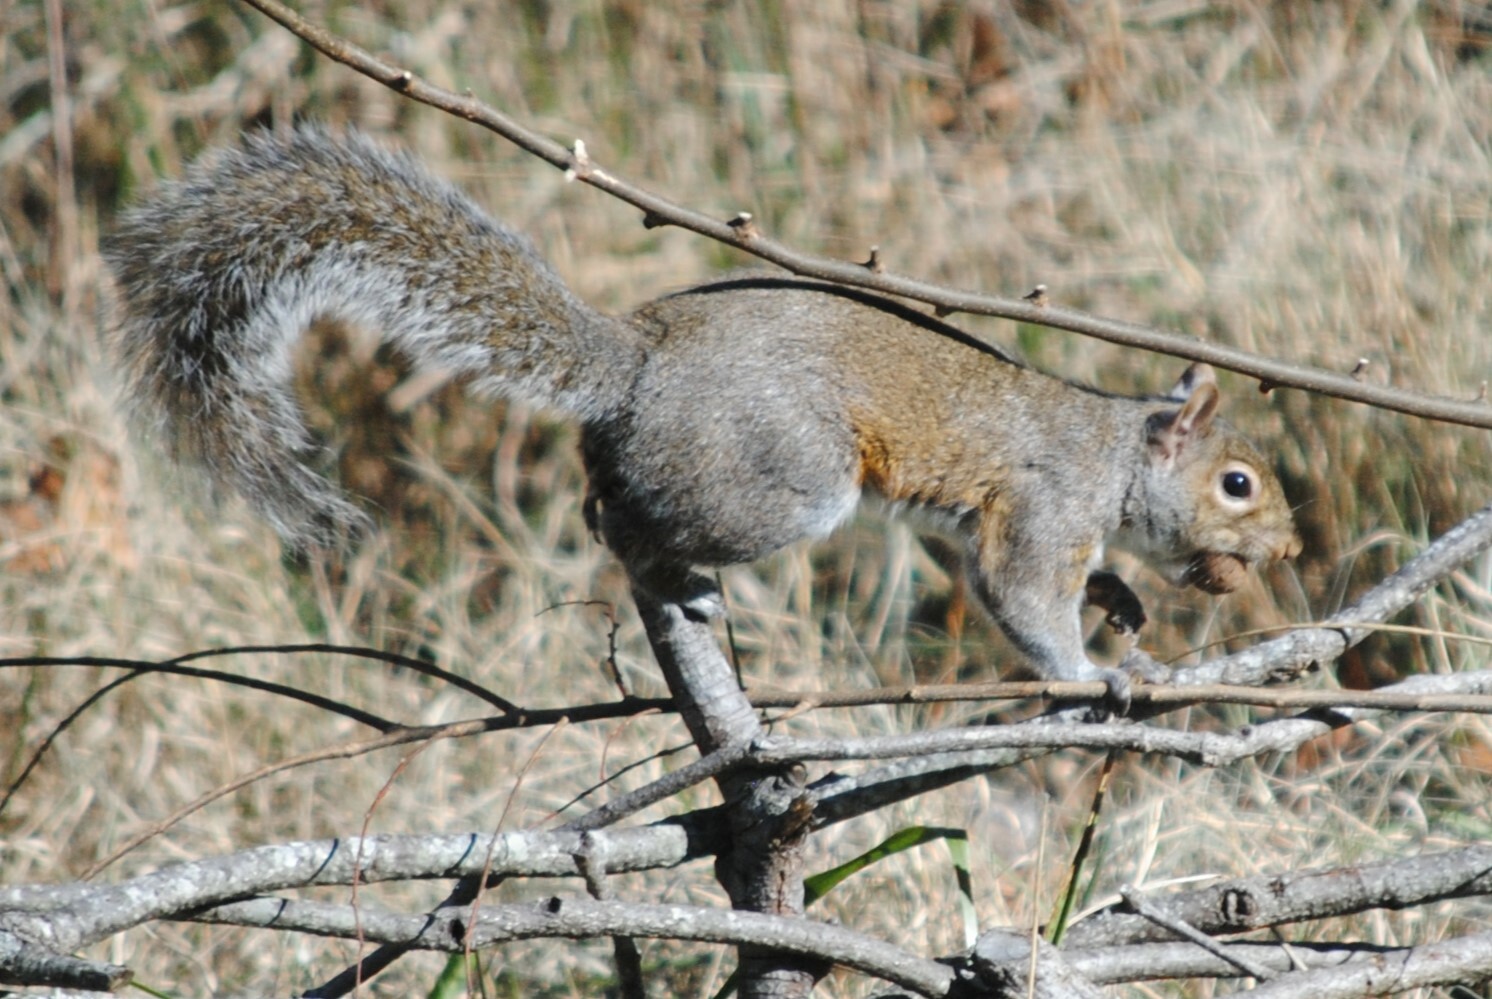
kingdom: Animalia
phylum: Chordata
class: Mammalia
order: Rodentia
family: Sciuridae
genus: Sciurus
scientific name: Sciurus carolinensis
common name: Eastern gray squirrel
